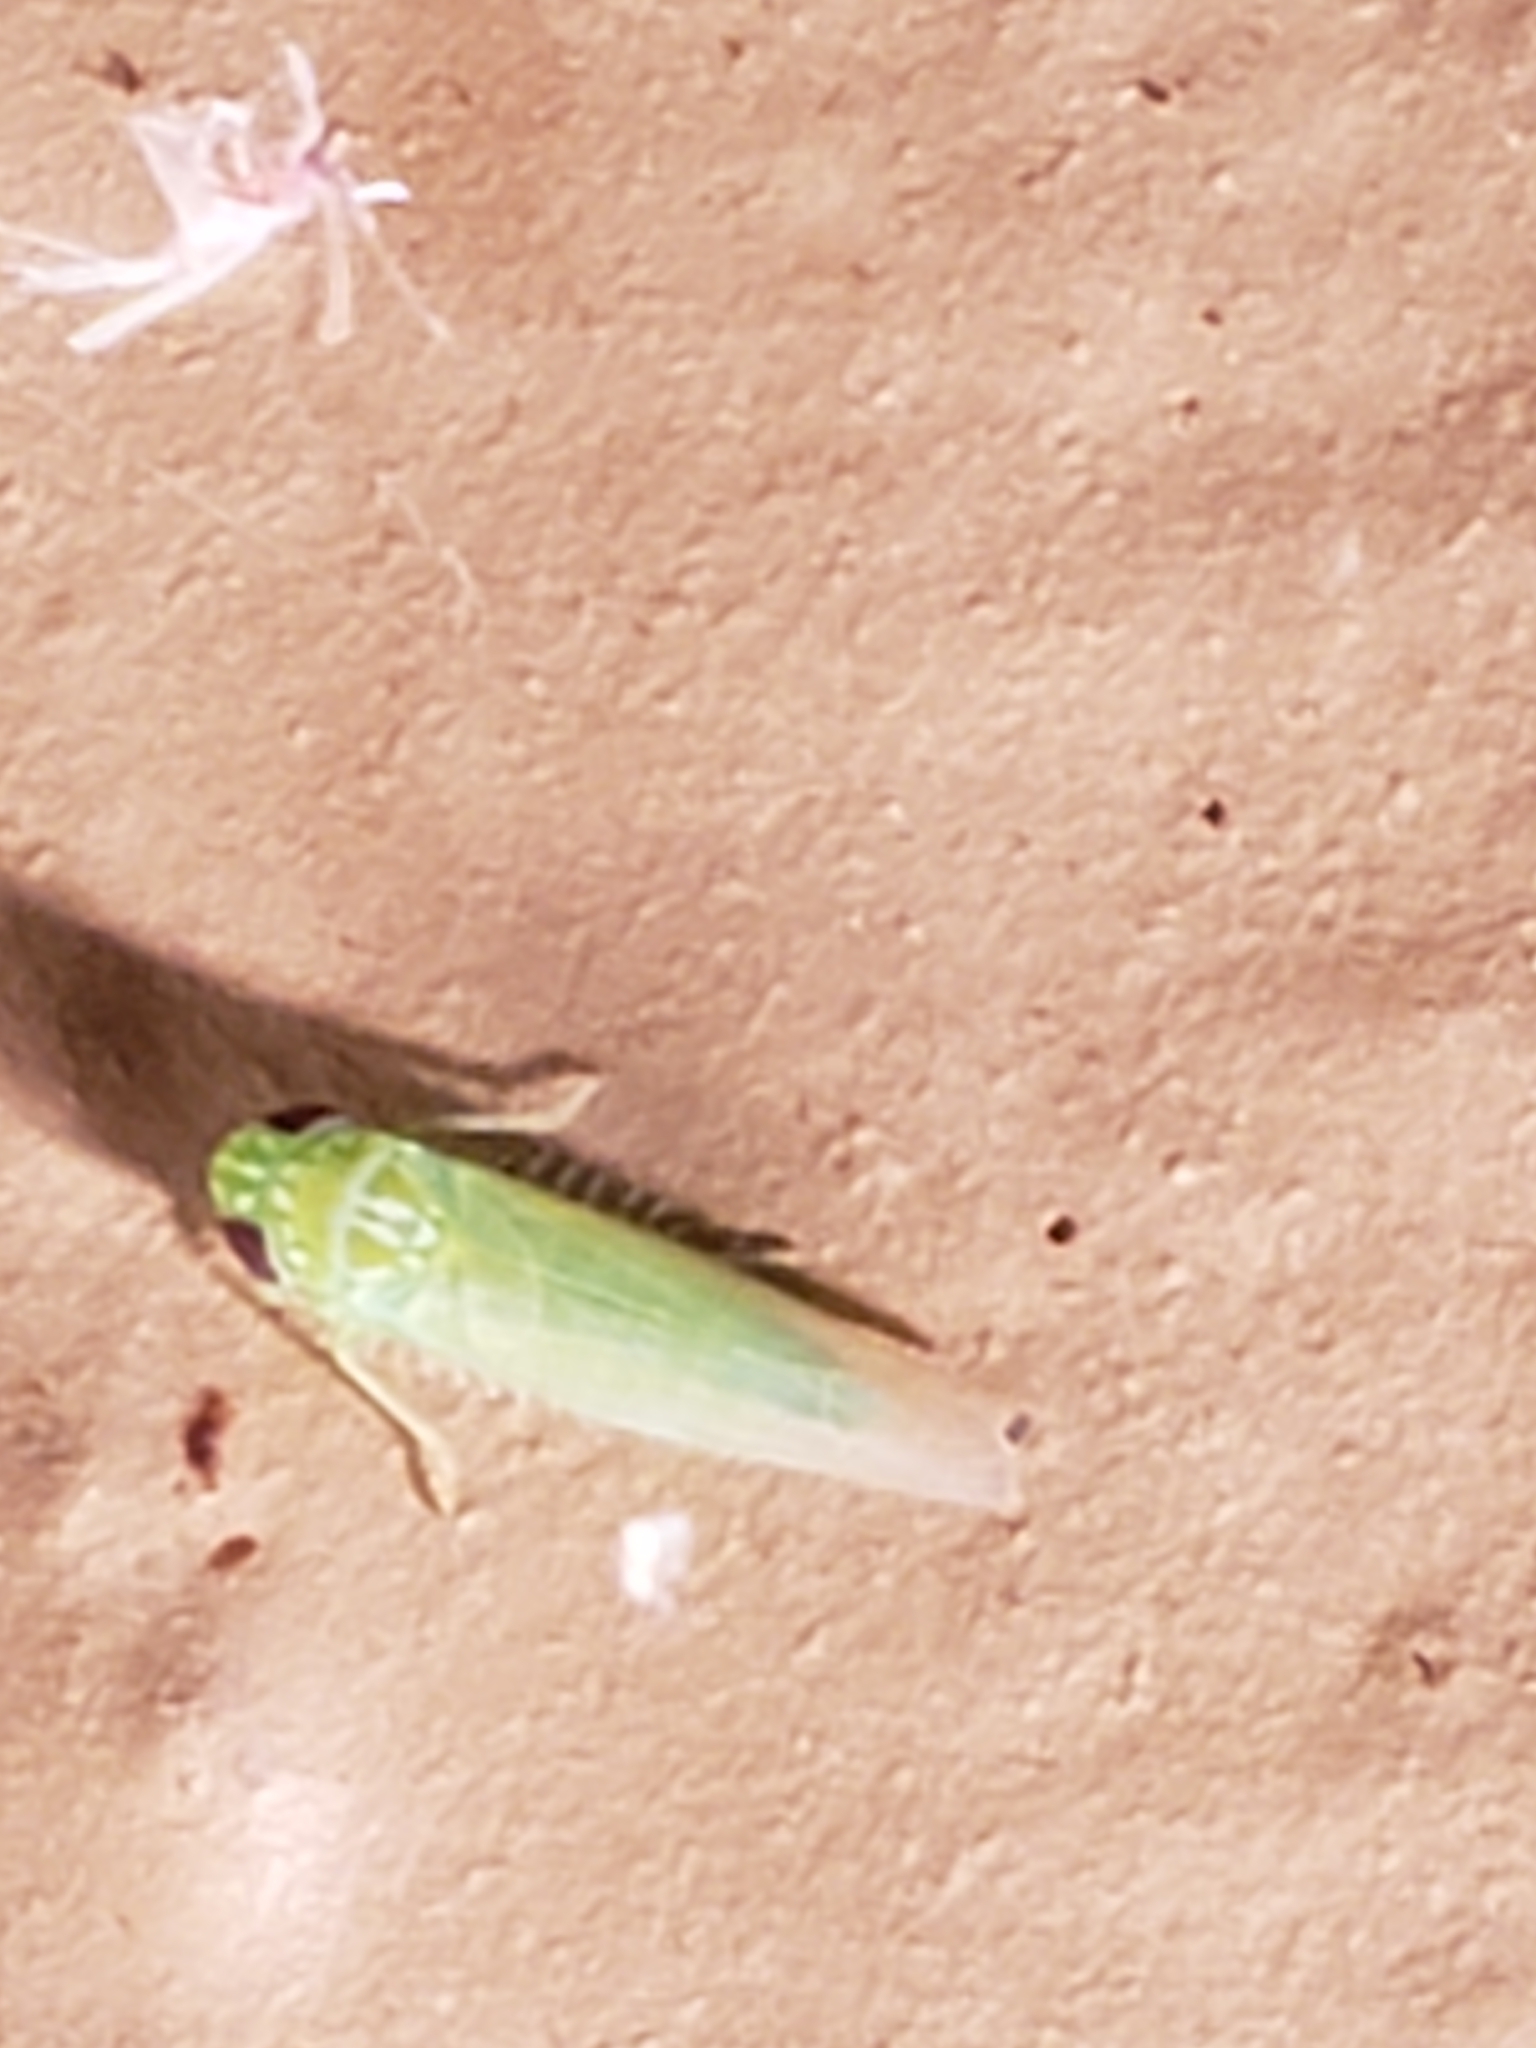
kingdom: Animalia
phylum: Arthropoda
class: Insecta
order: Hemiptera
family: Cicadellidae
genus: Empoasca
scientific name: Empoasca fabae
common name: Potato leafhopper
